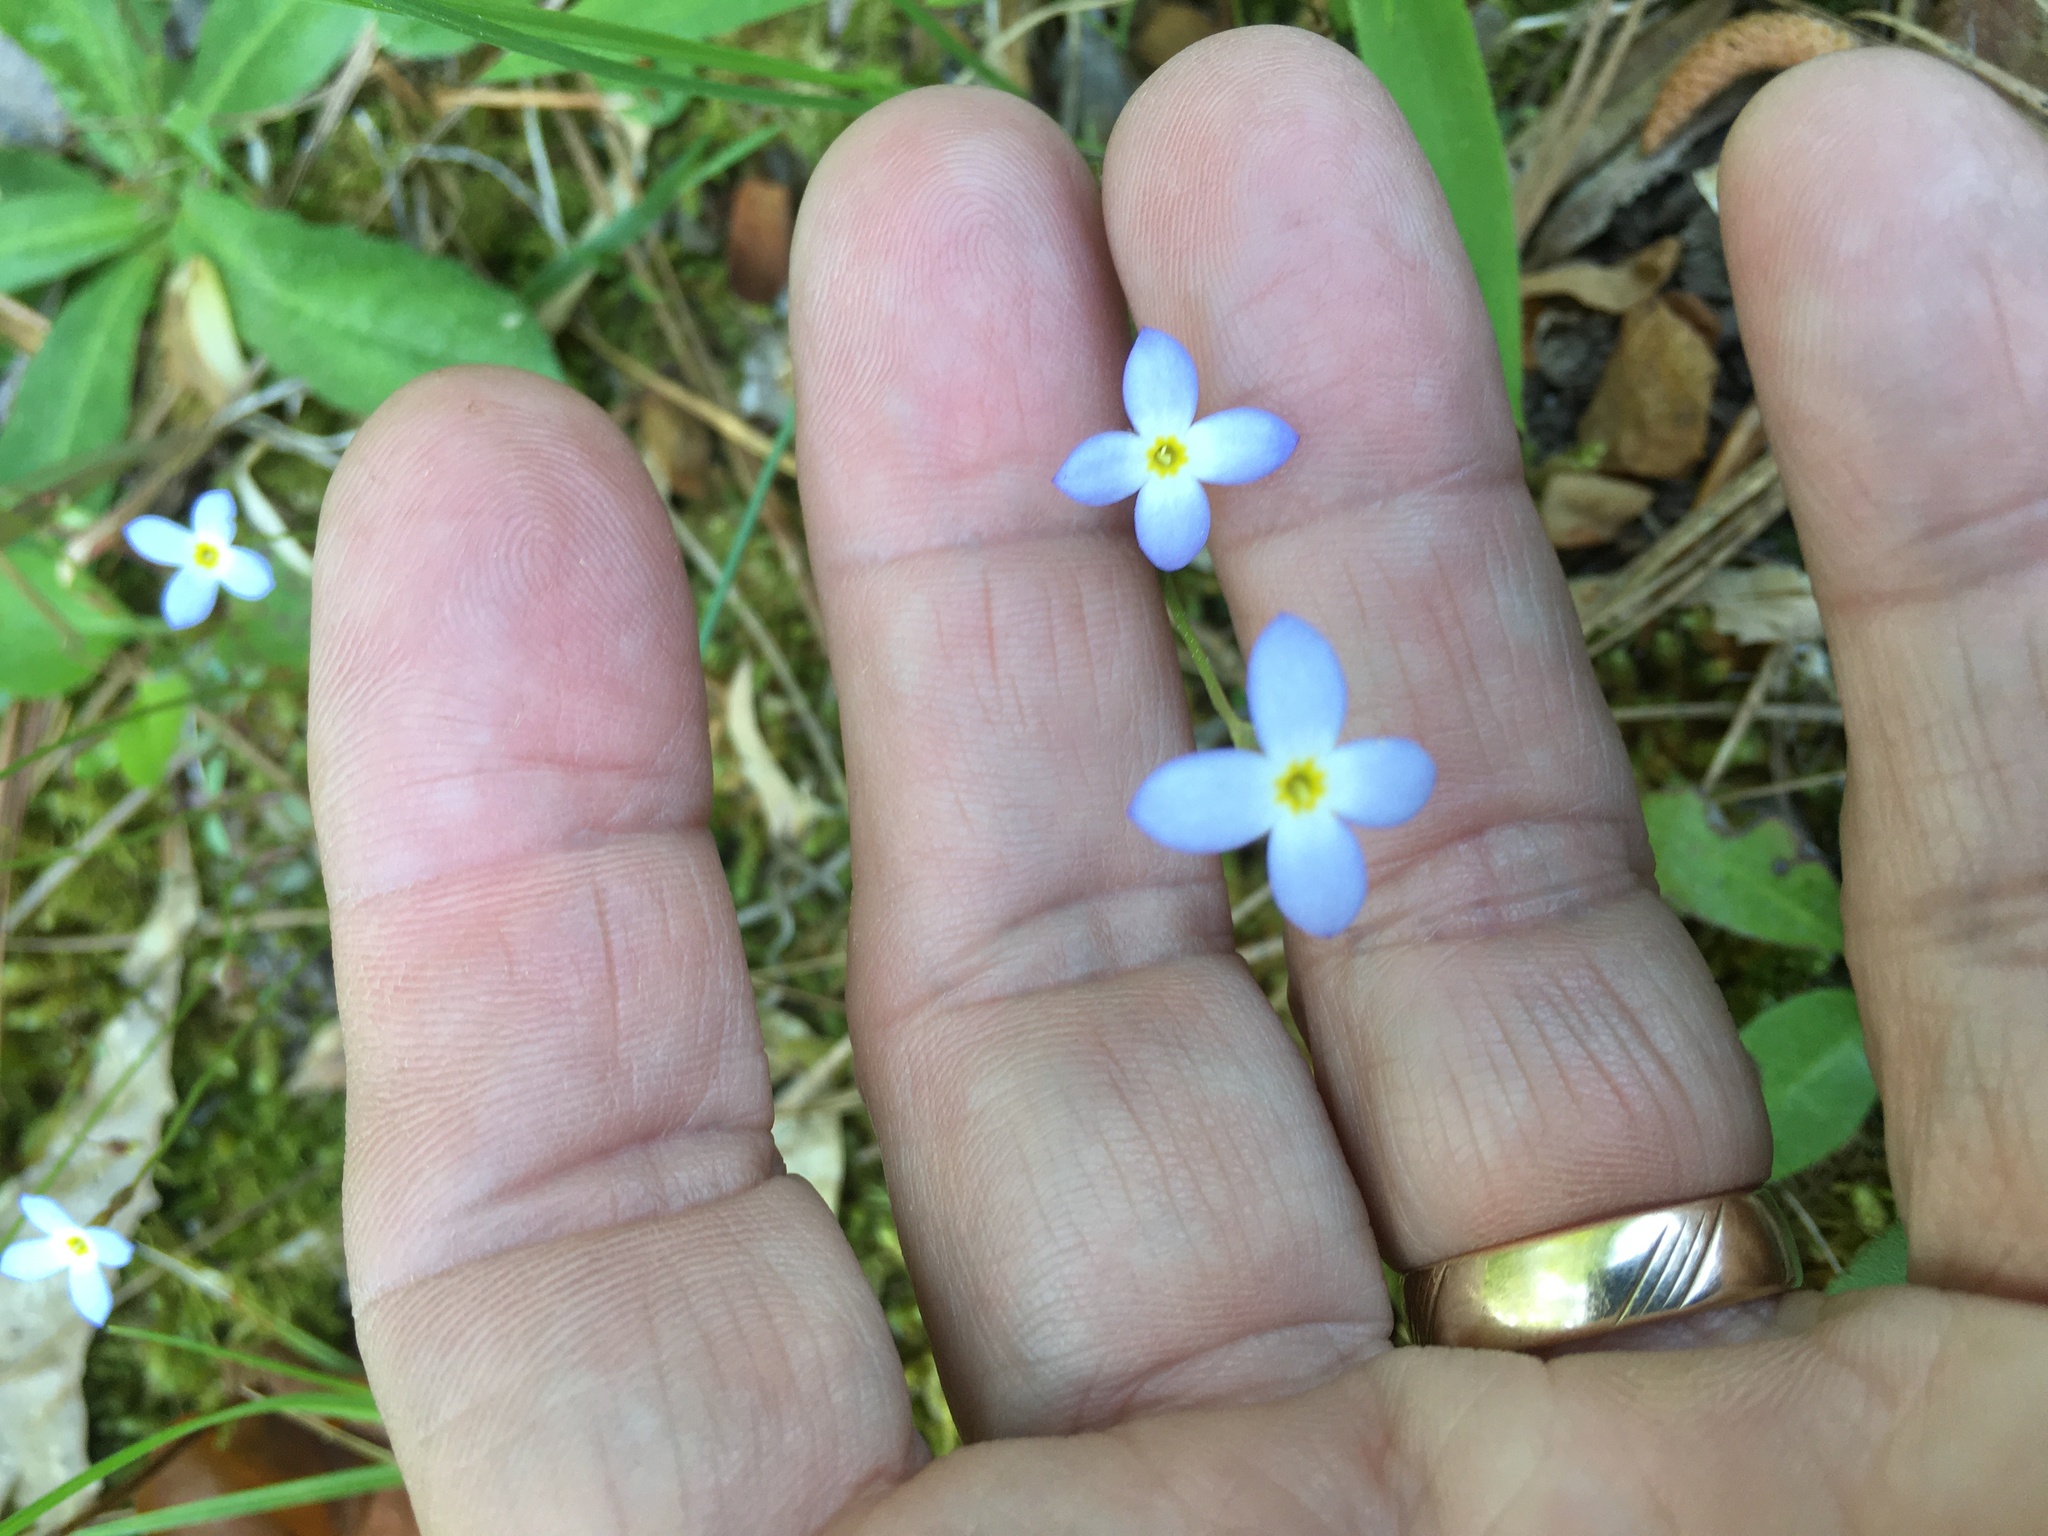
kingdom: Plantae
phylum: Tracheophyta
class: Magnoliopsida
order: Gentianales
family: Rubiaceae
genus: Houstonia
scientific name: Houstonia caerulea
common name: Bluets
